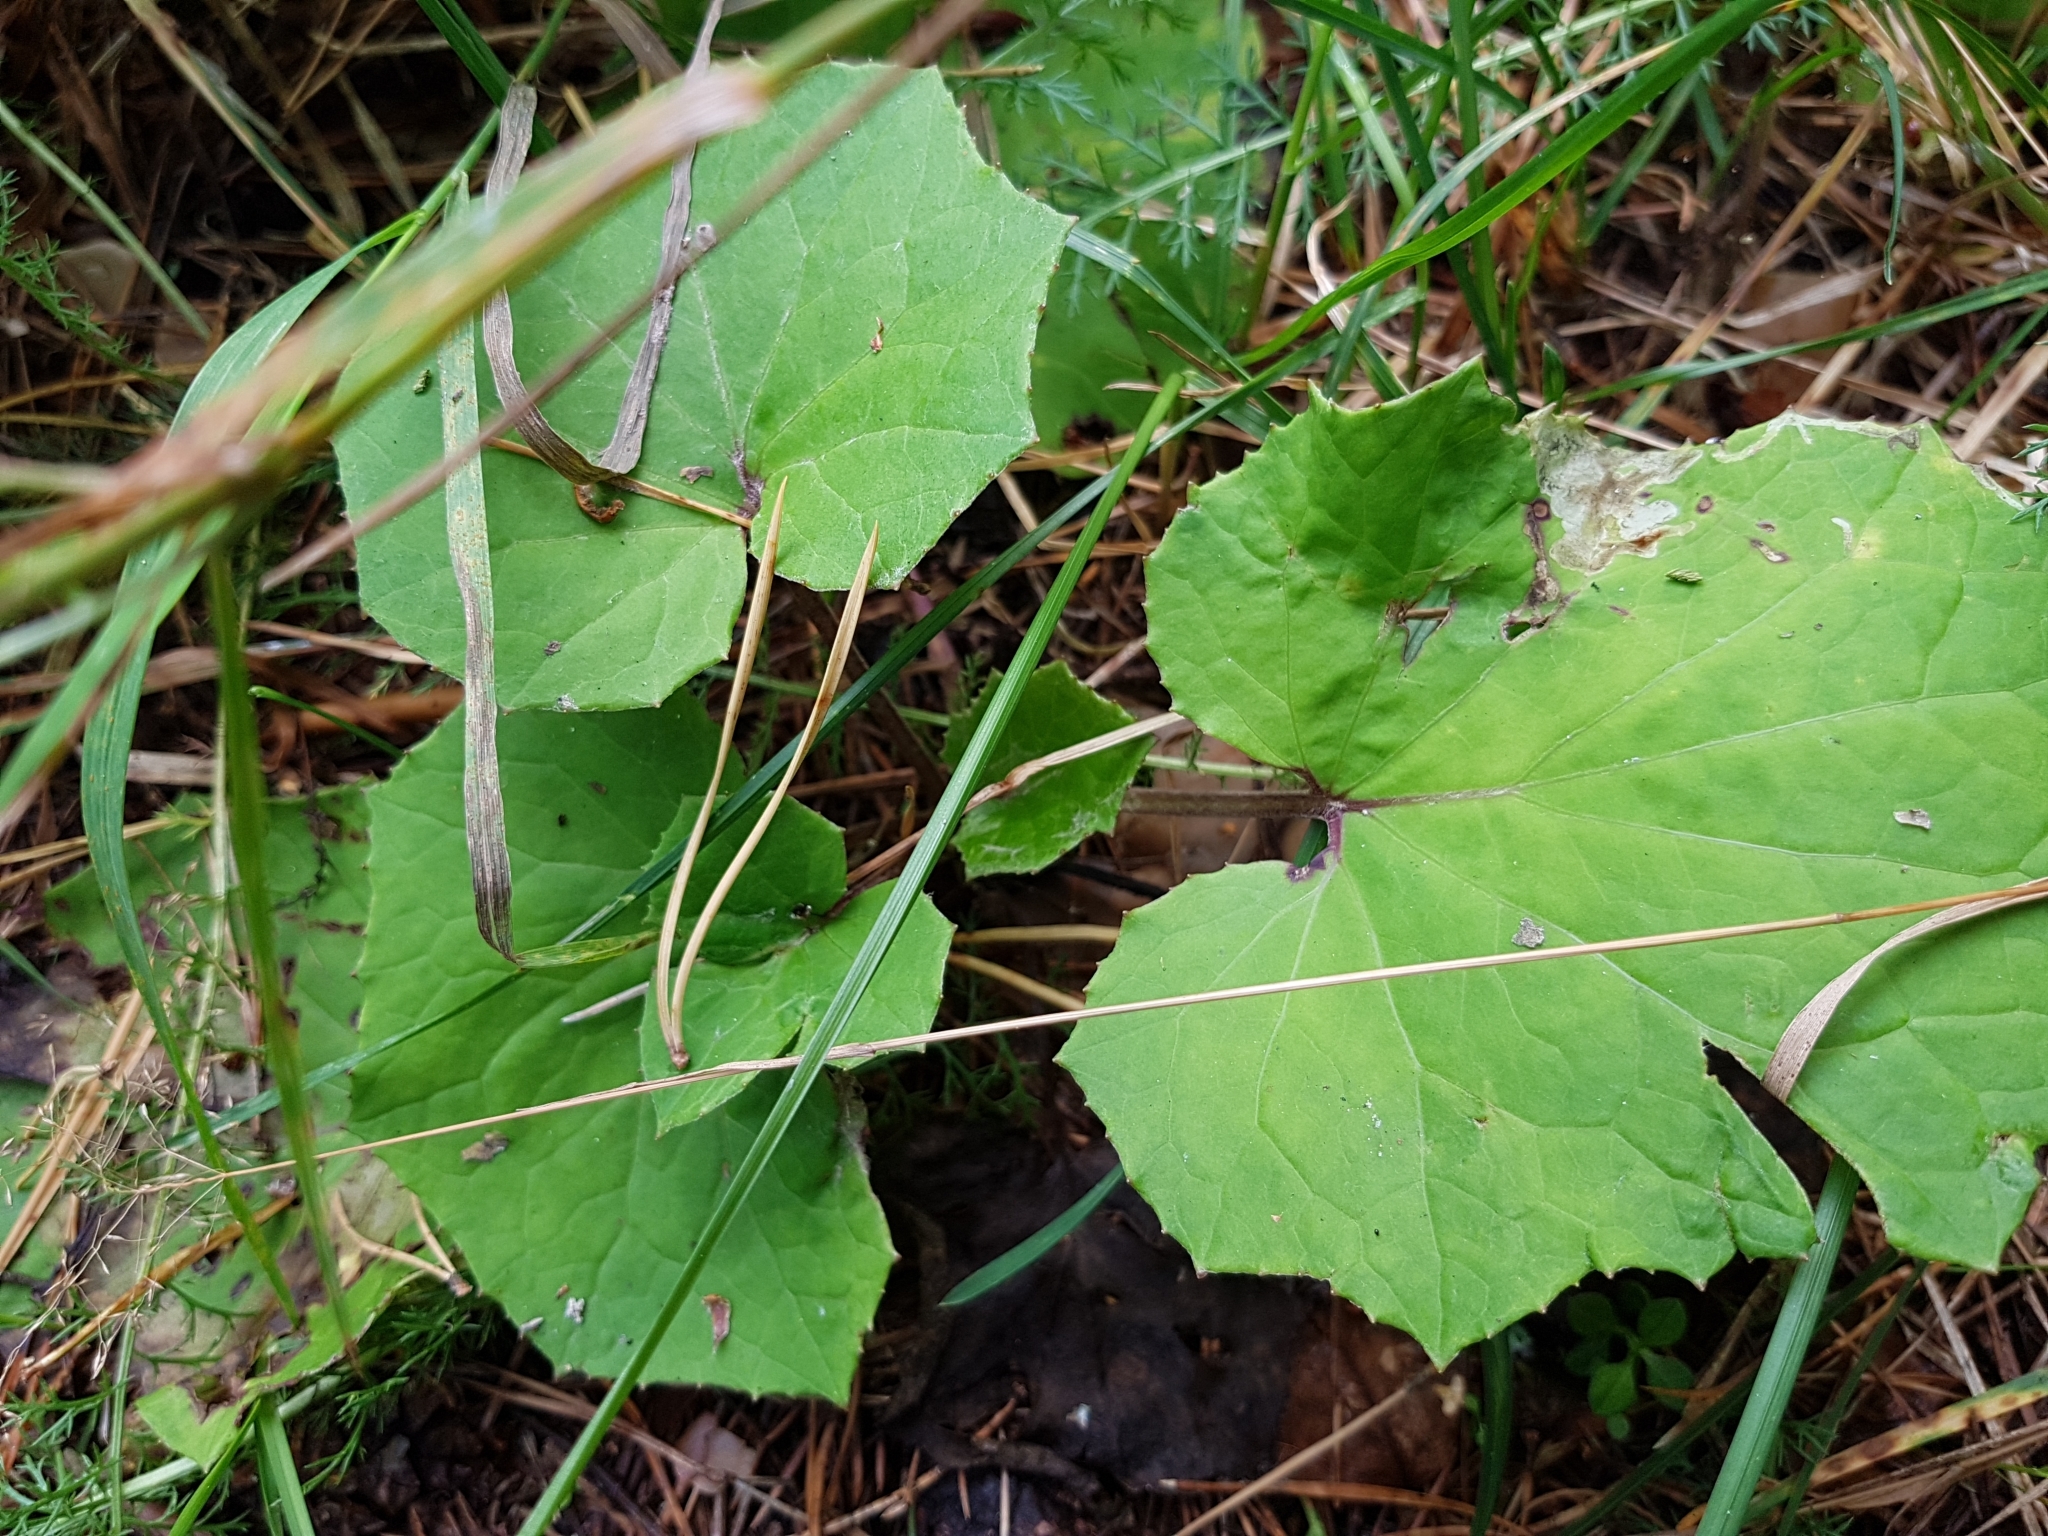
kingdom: Plantae
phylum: Tracheophyta
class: Magnoliopsida
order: Asterales
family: Asteraceae
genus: Tussilago
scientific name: Tussilago farfara
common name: Coltsfoot
